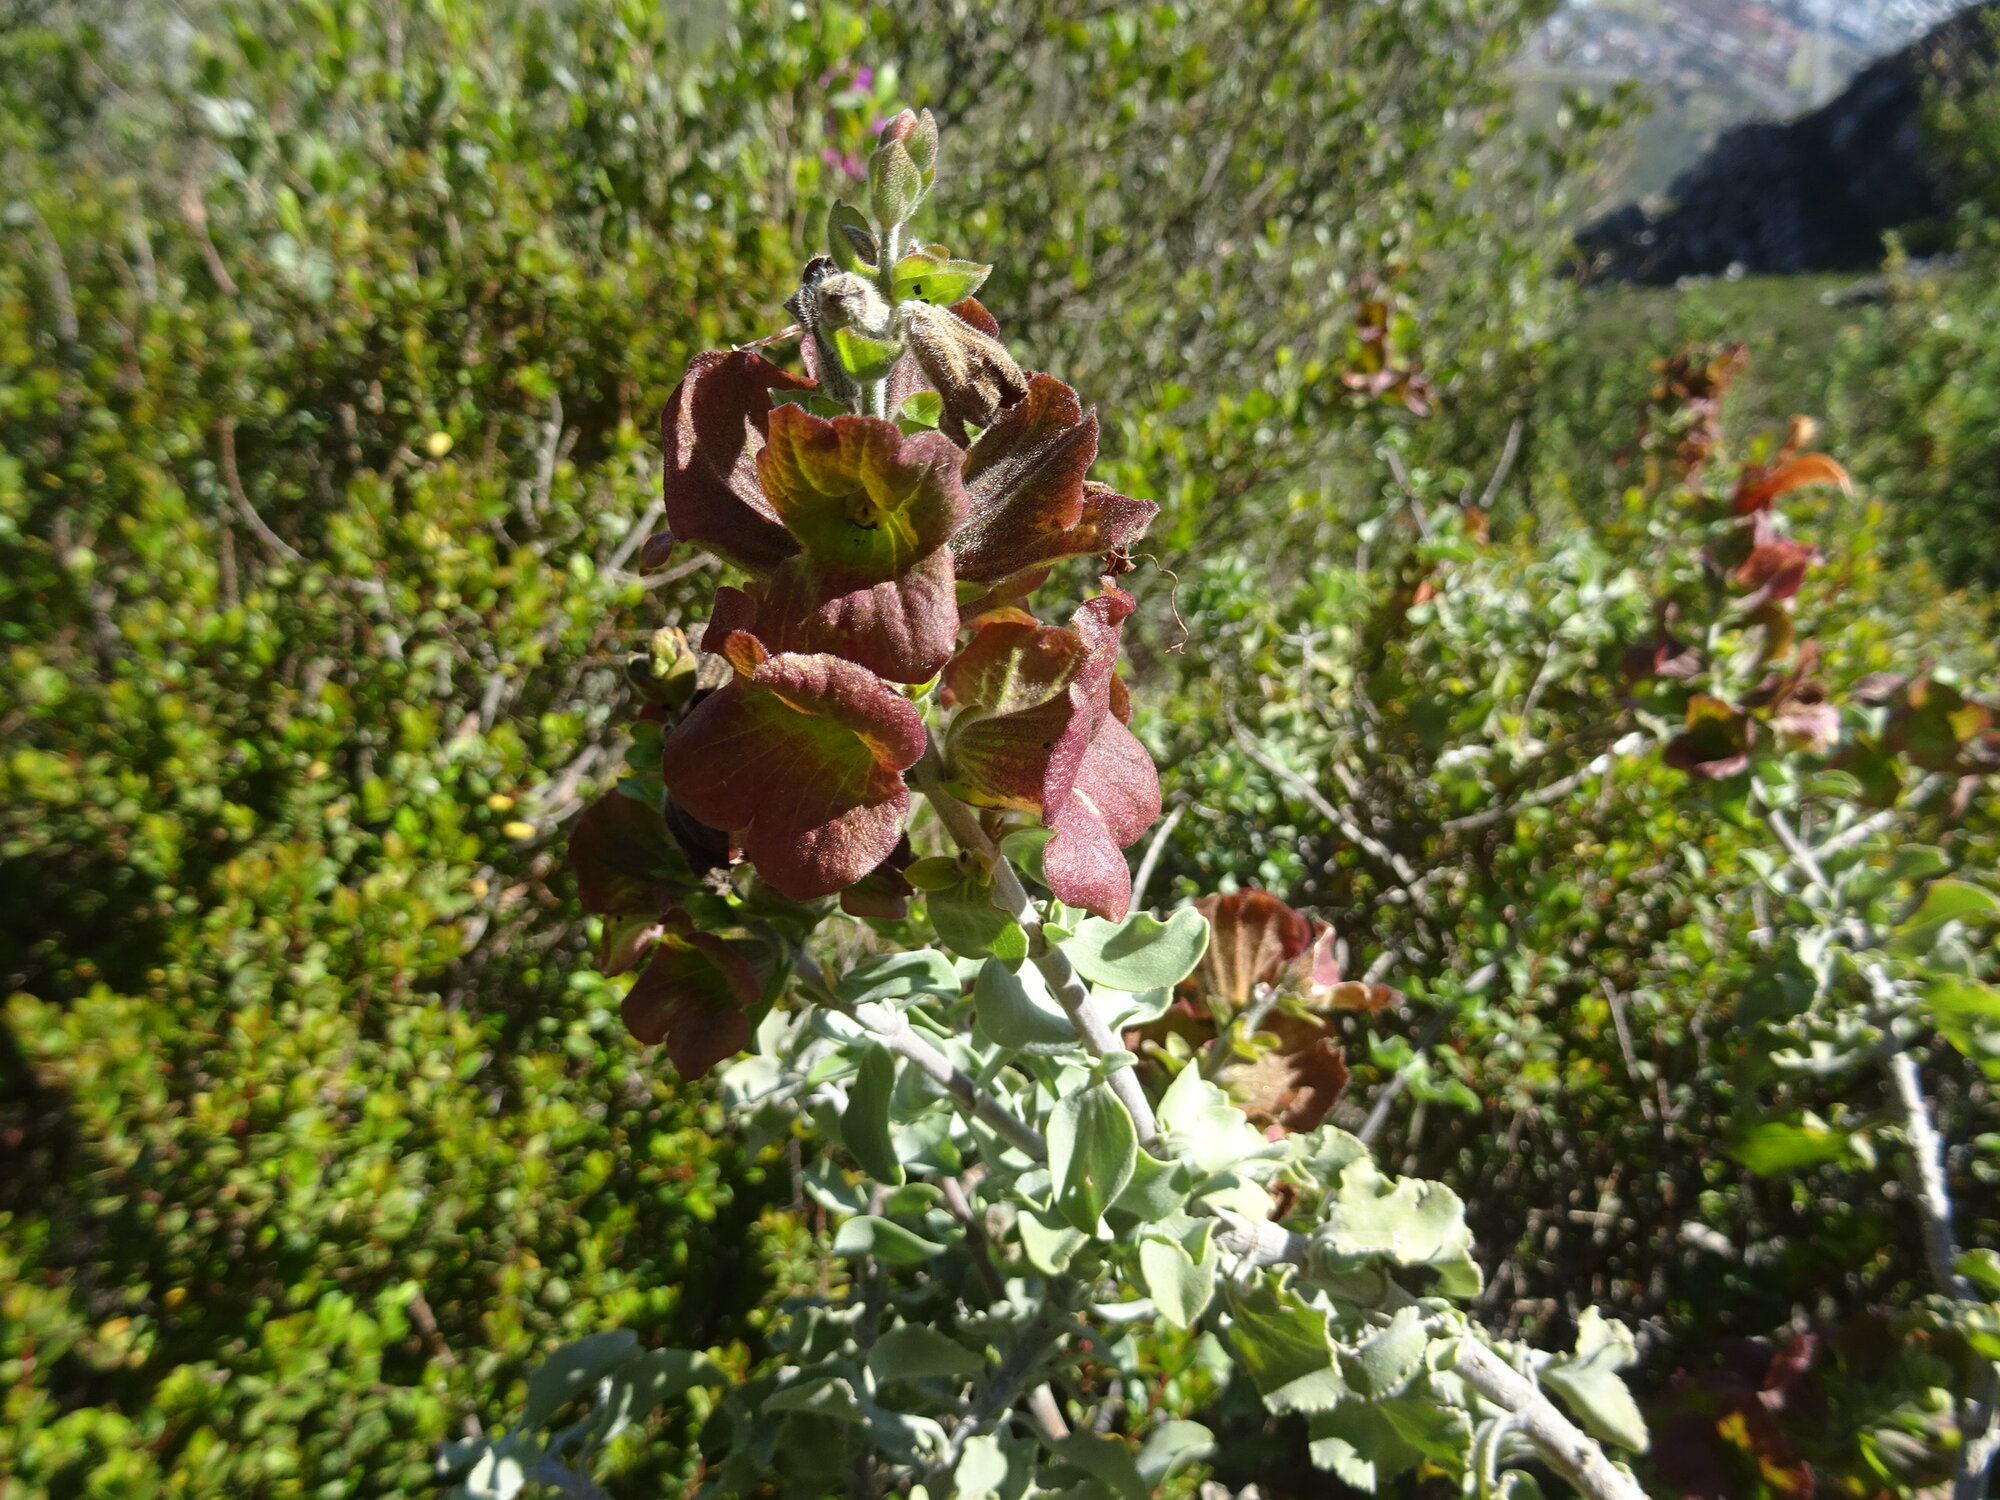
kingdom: Plantae
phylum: Tracheophyta
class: Magnoliopsida
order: Lamiales
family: Lamiaceae
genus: Salvia
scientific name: Salvia aurea
